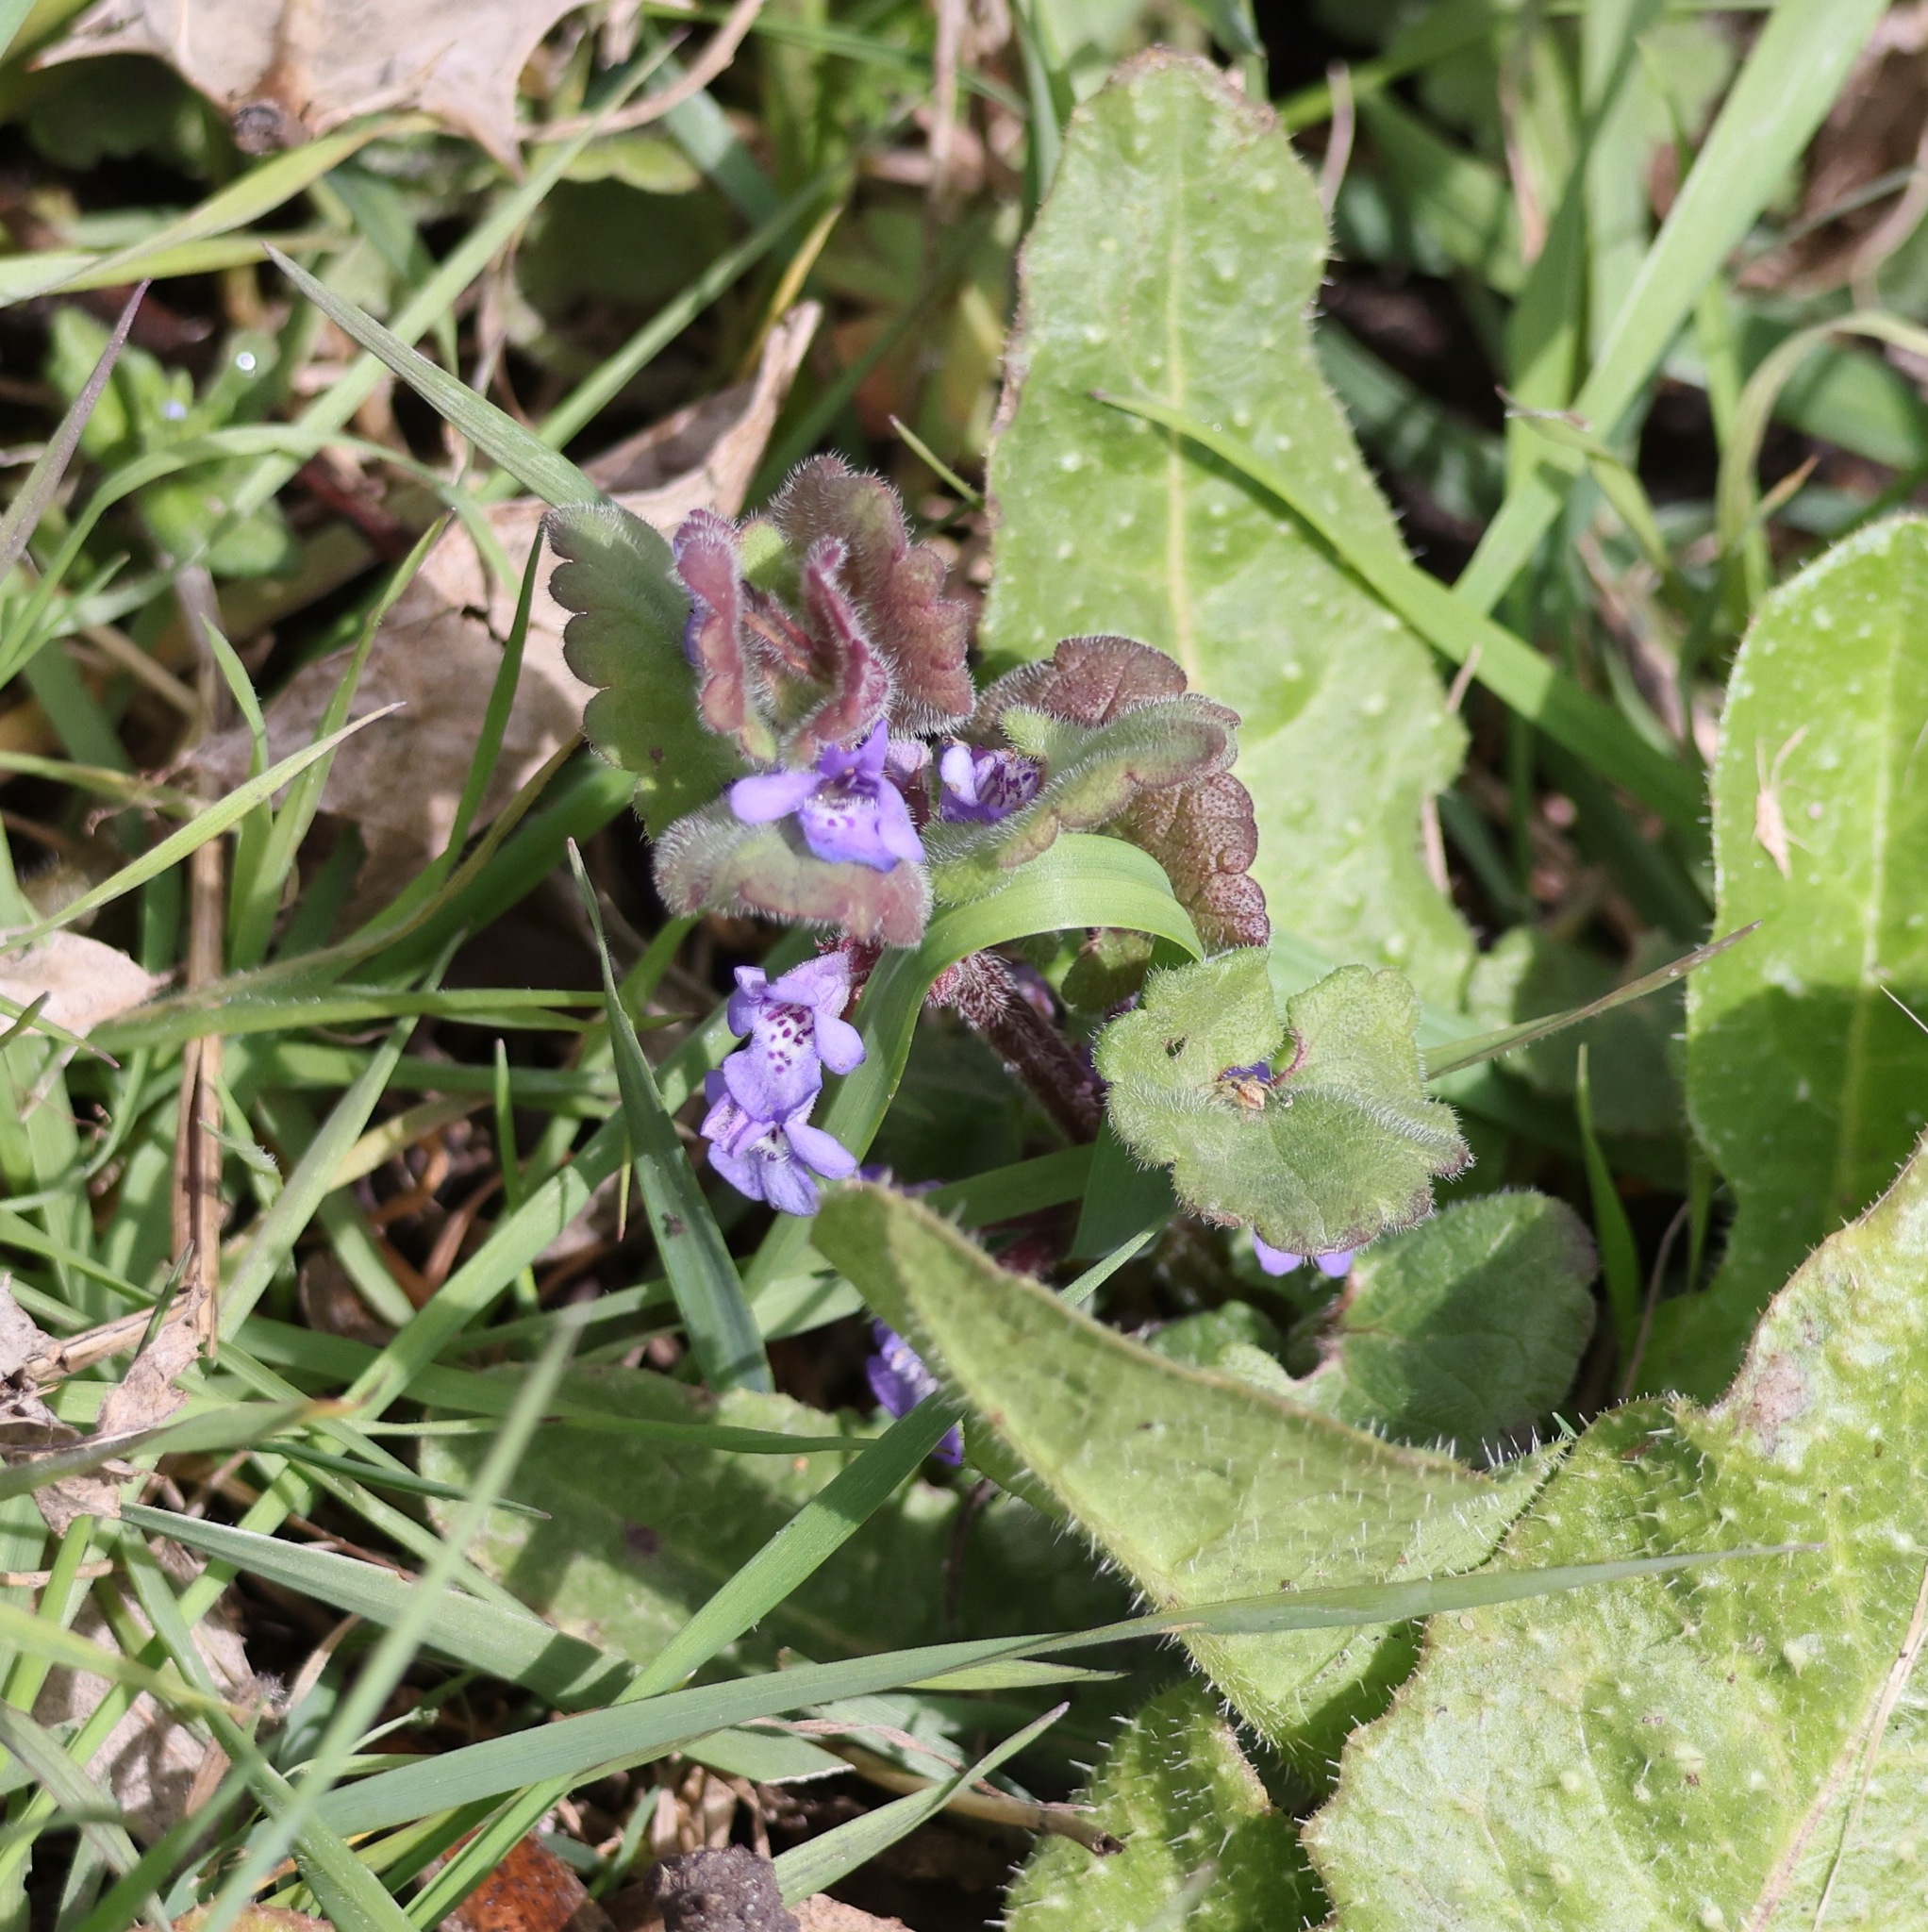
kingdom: Plantae
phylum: Tracheophyta
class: Magnoliopsida
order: Lamiales
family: Lamiaceae
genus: Glechoma
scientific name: Glechoma hederacea
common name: Ground ivy
